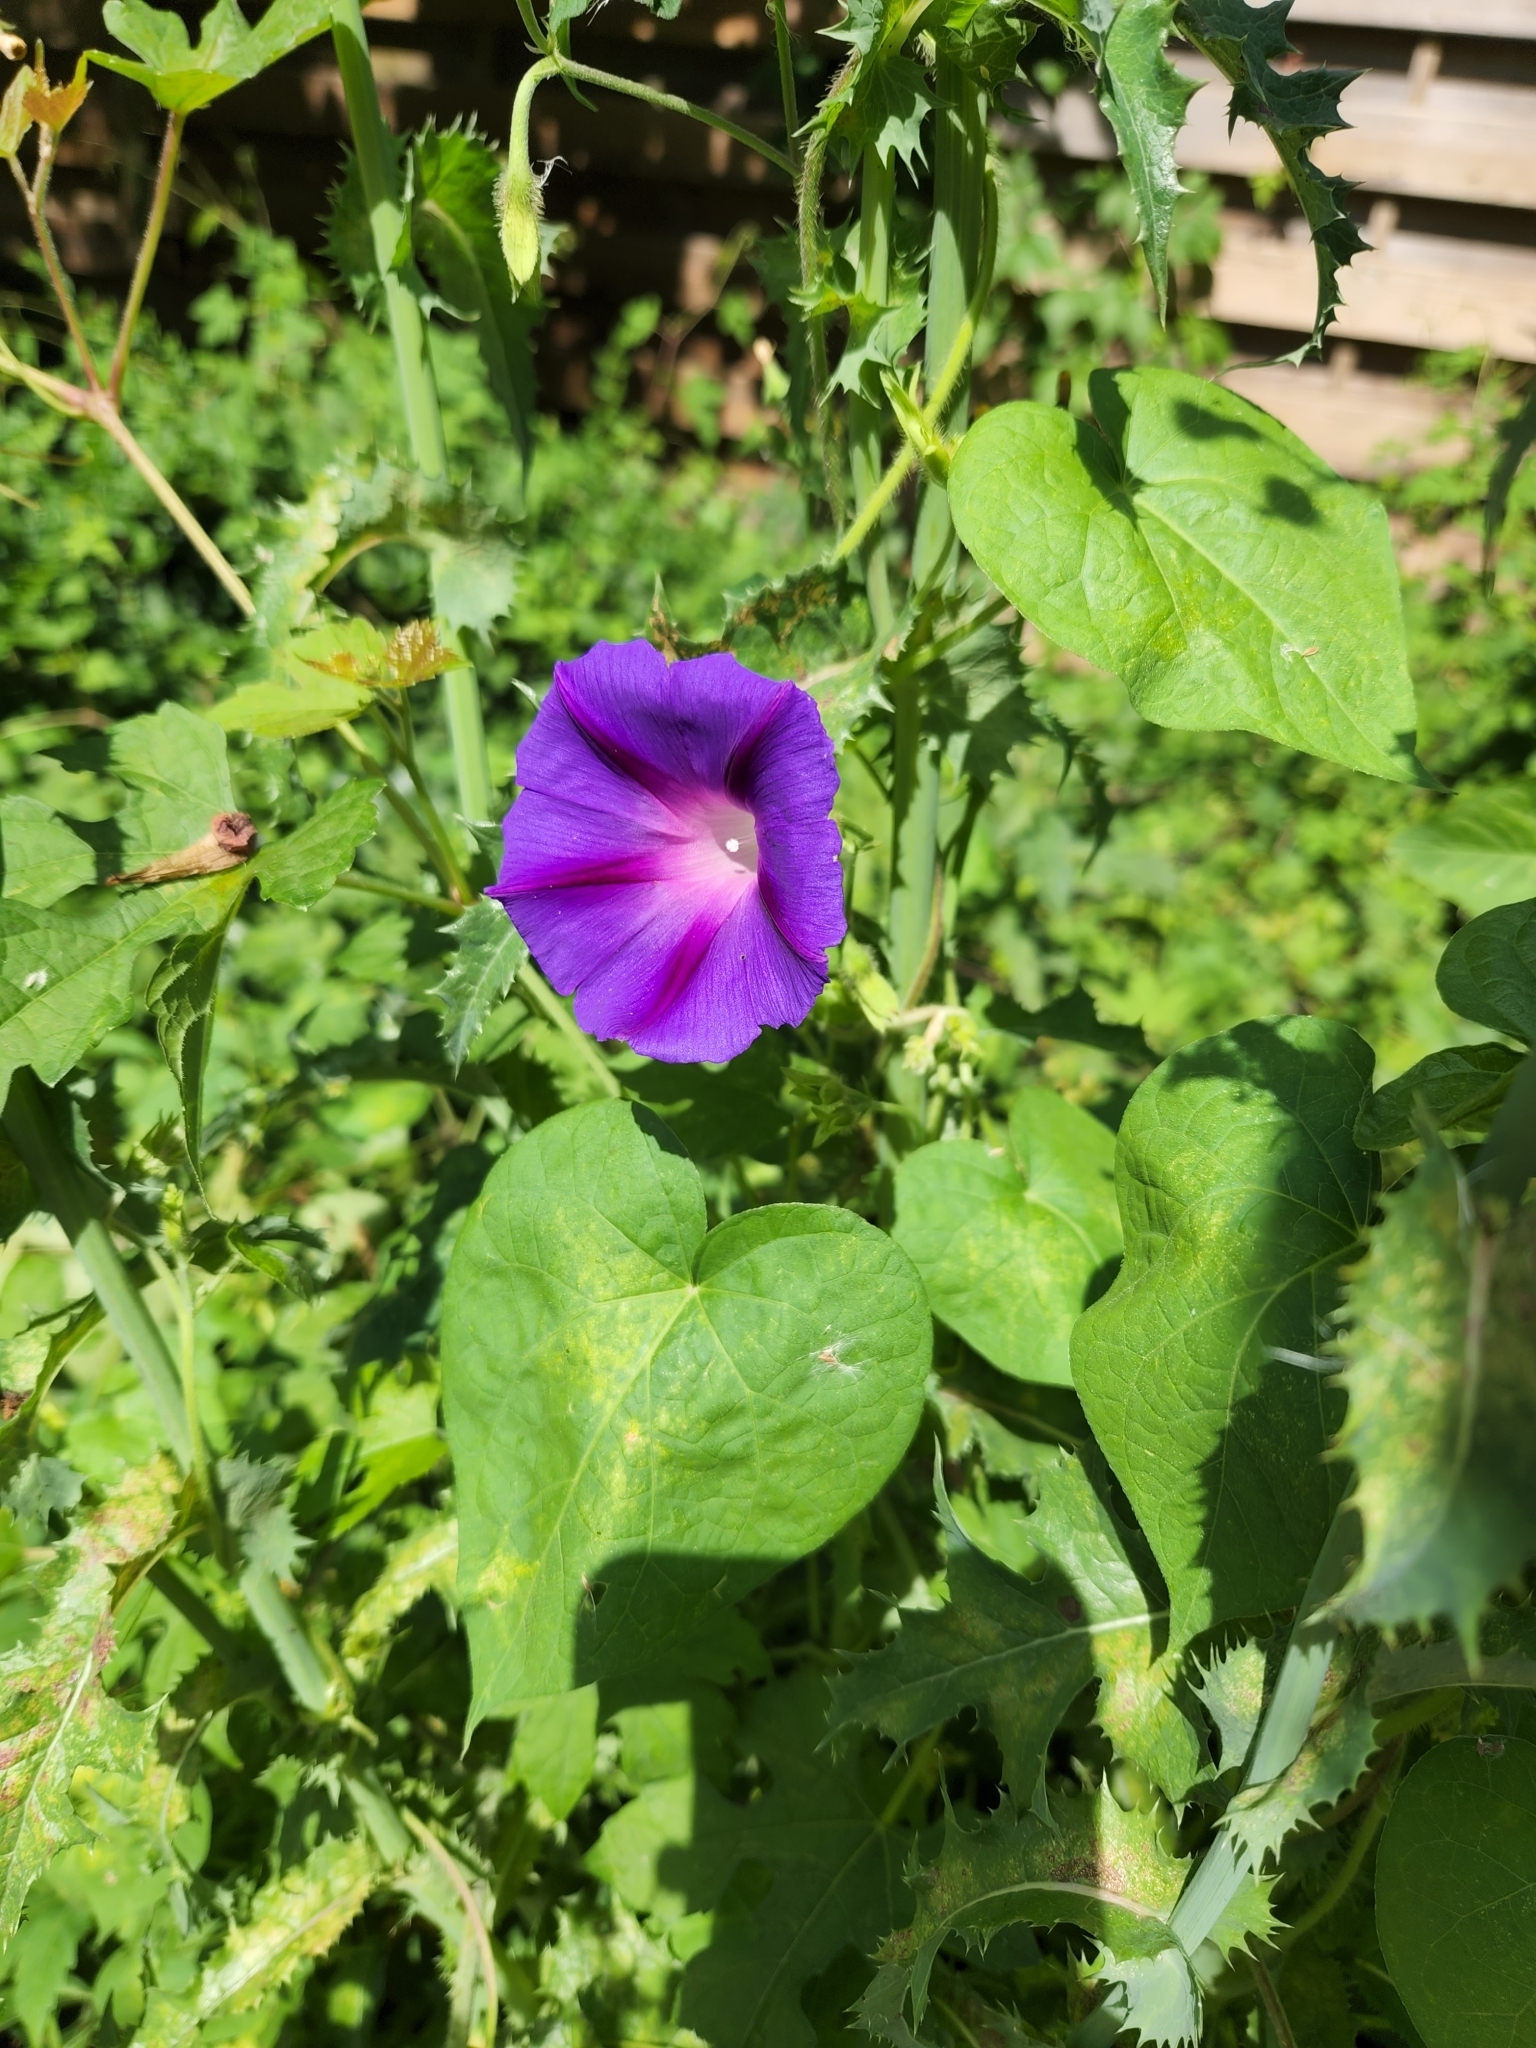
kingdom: Plantae
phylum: Tracheophyta
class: Magnoliopsida
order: Solanales
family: Convolvulaceae
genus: Ipomoea
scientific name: Ipomoea purpurea
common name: Common morning-glory
